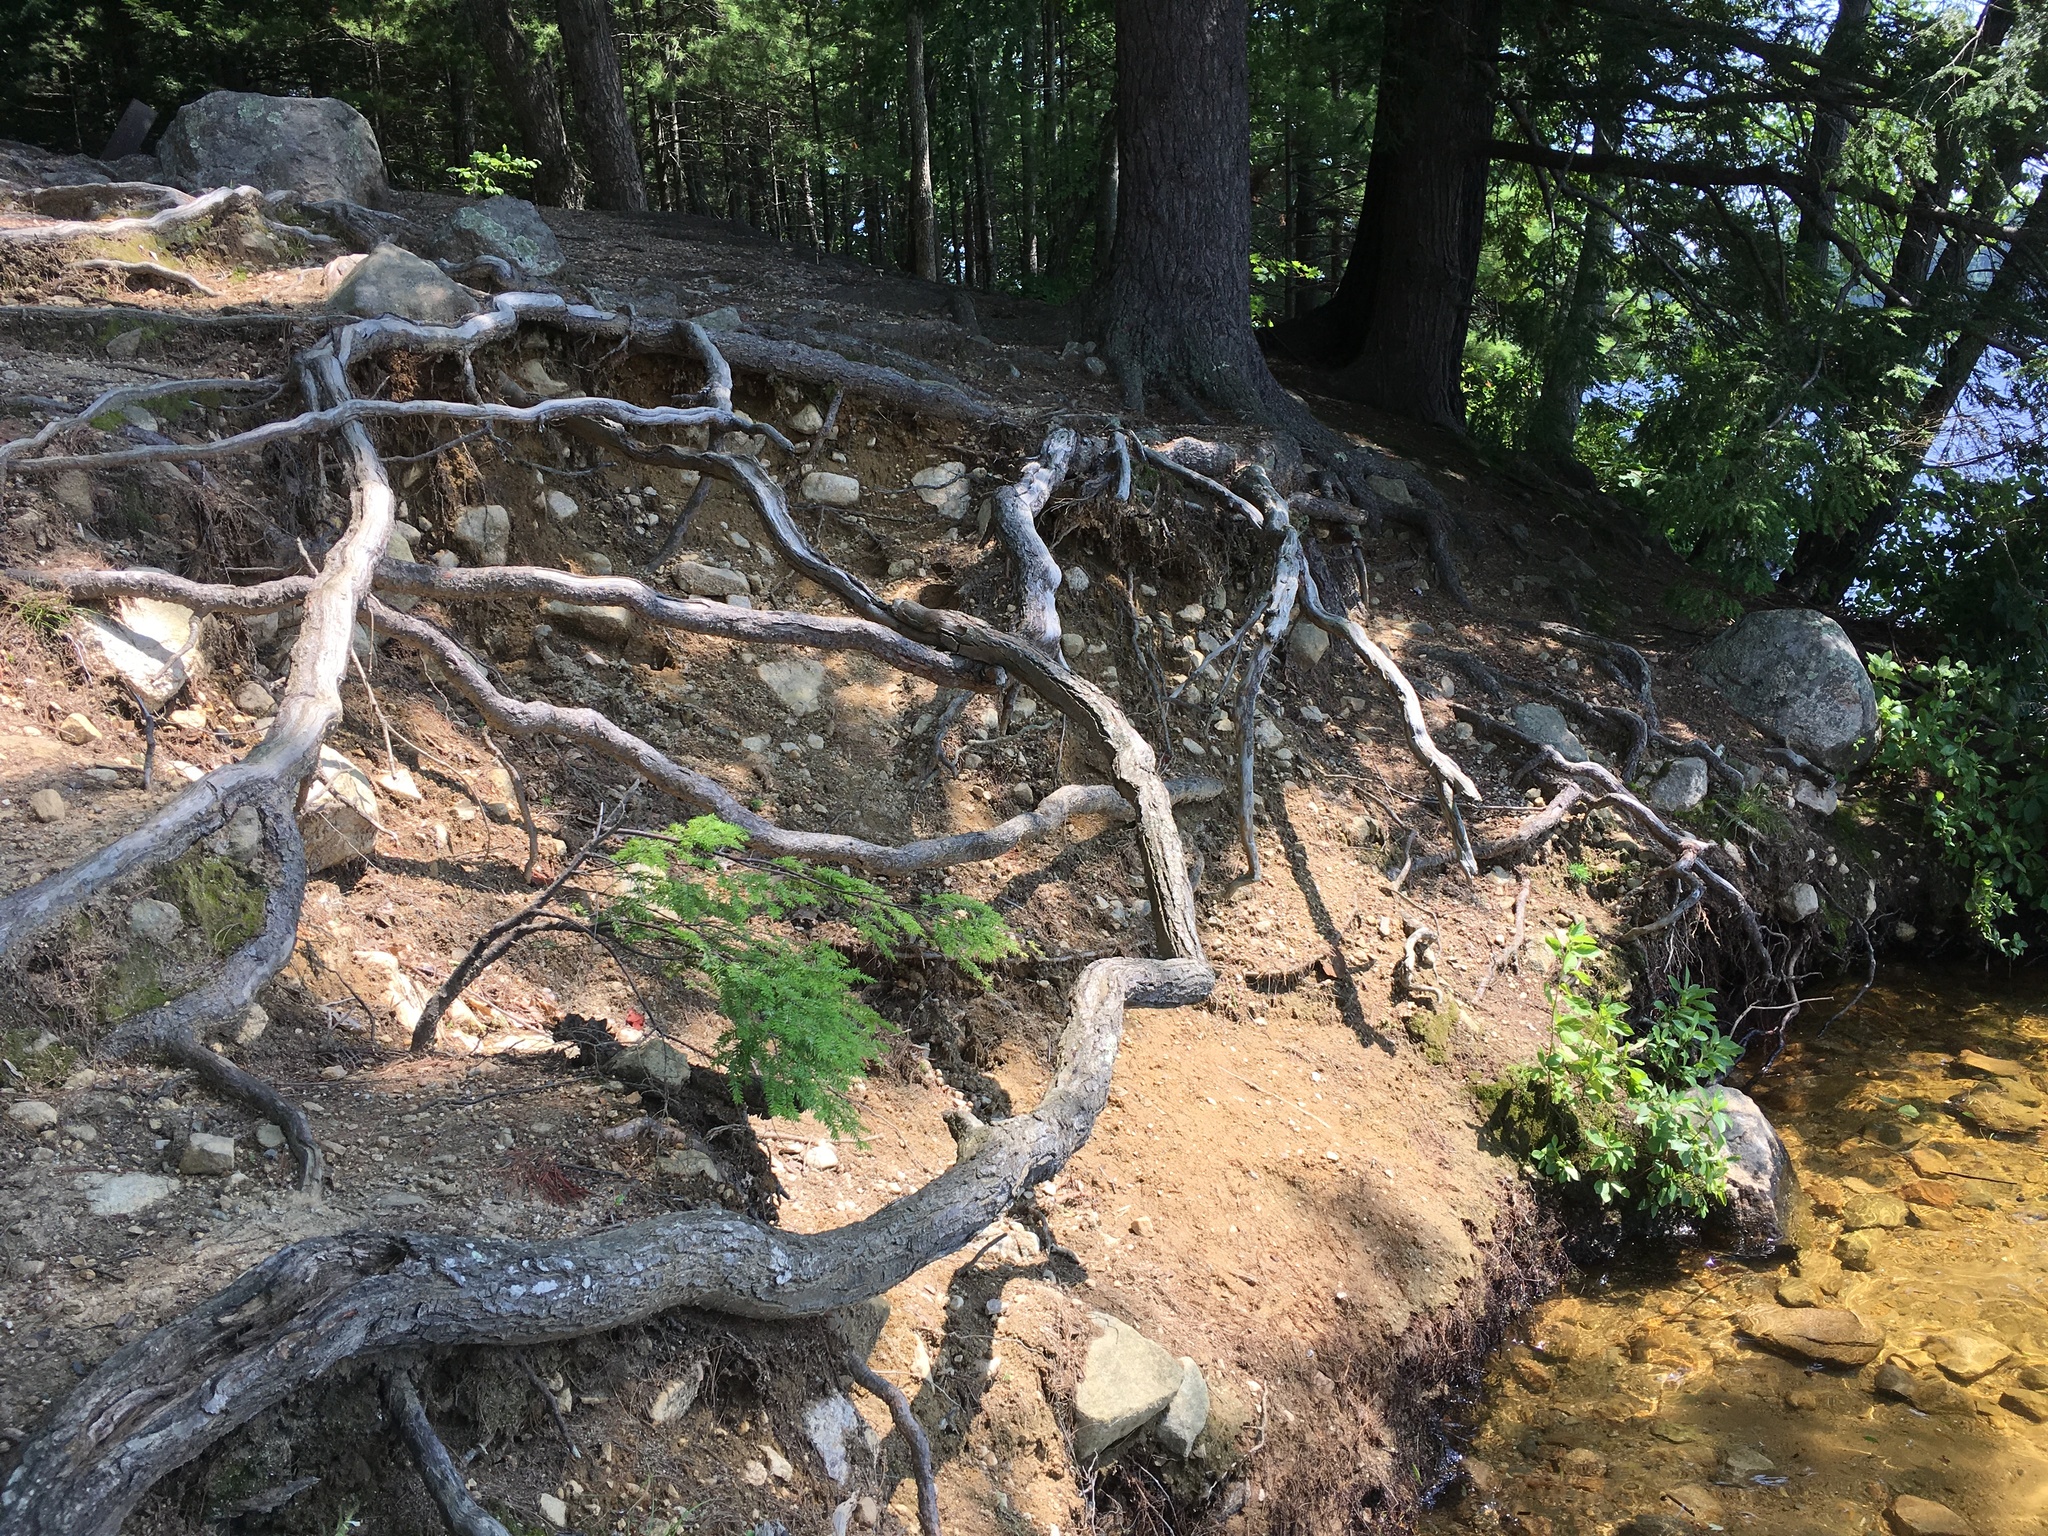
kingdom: Plantae
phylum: Tracheophyta
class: Pinopsida
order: Pinales
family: Pinaceae
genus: Tsuga
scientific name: Tsuga canadensis
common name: Eastern hemlock
